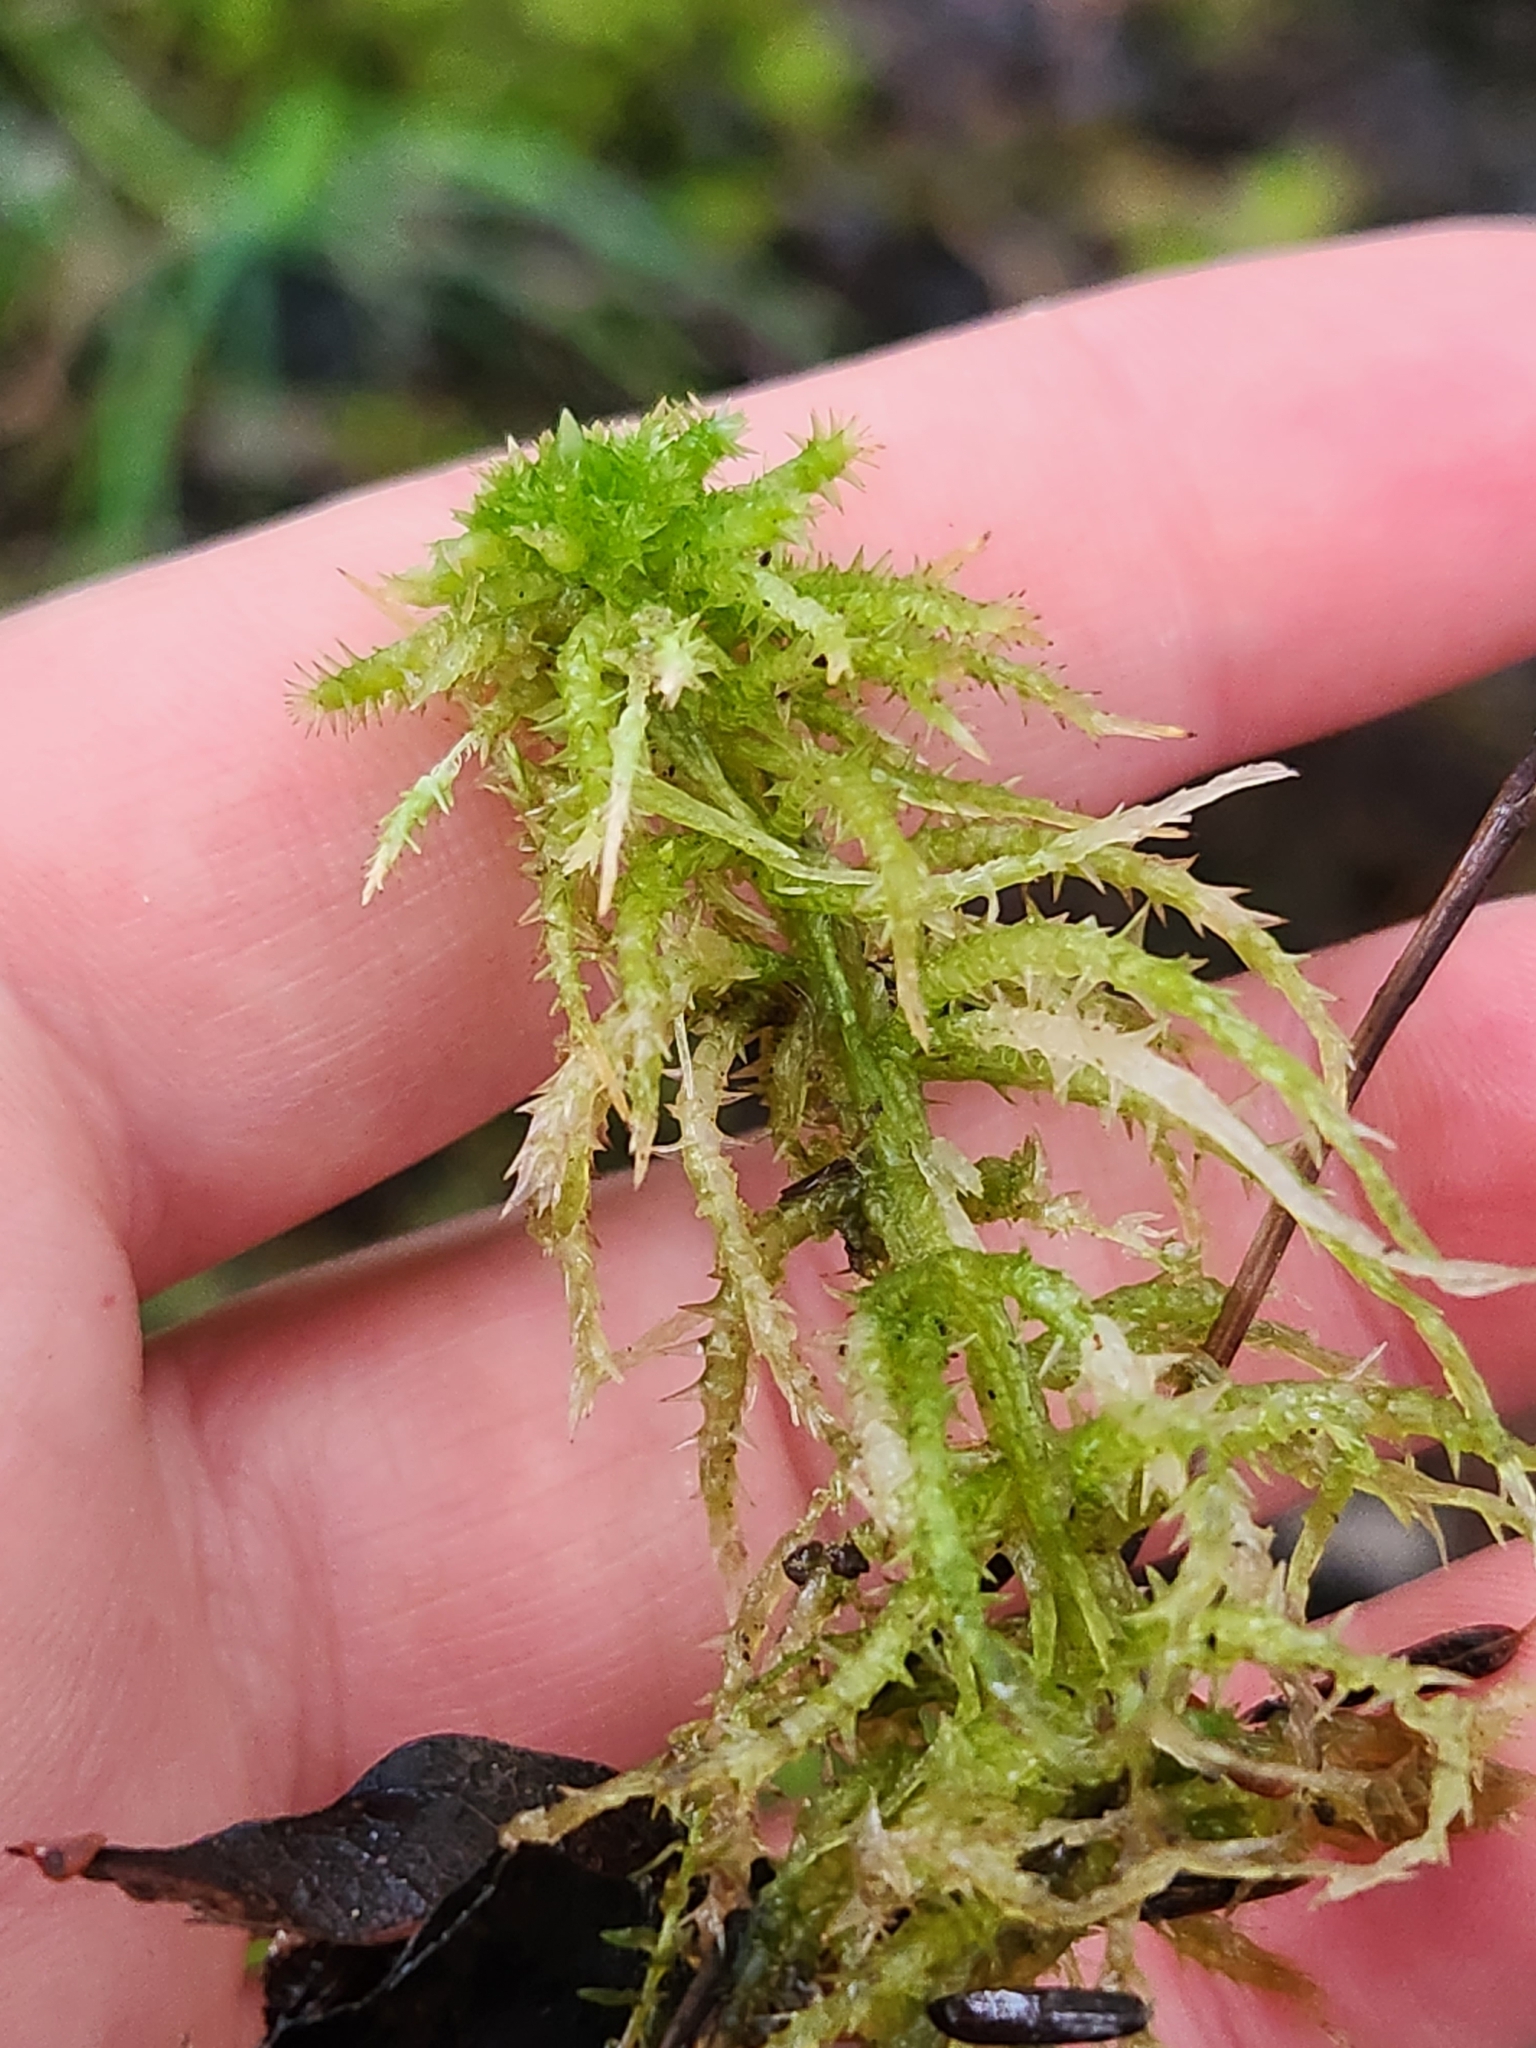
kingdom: Plantae
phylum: Bryophyta
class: Sphagnopsida
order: Sphagnales
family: Sphagnaceae
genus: Sphagnum
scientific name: Sphagnum squarrosum
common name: Shaggy peat moss
